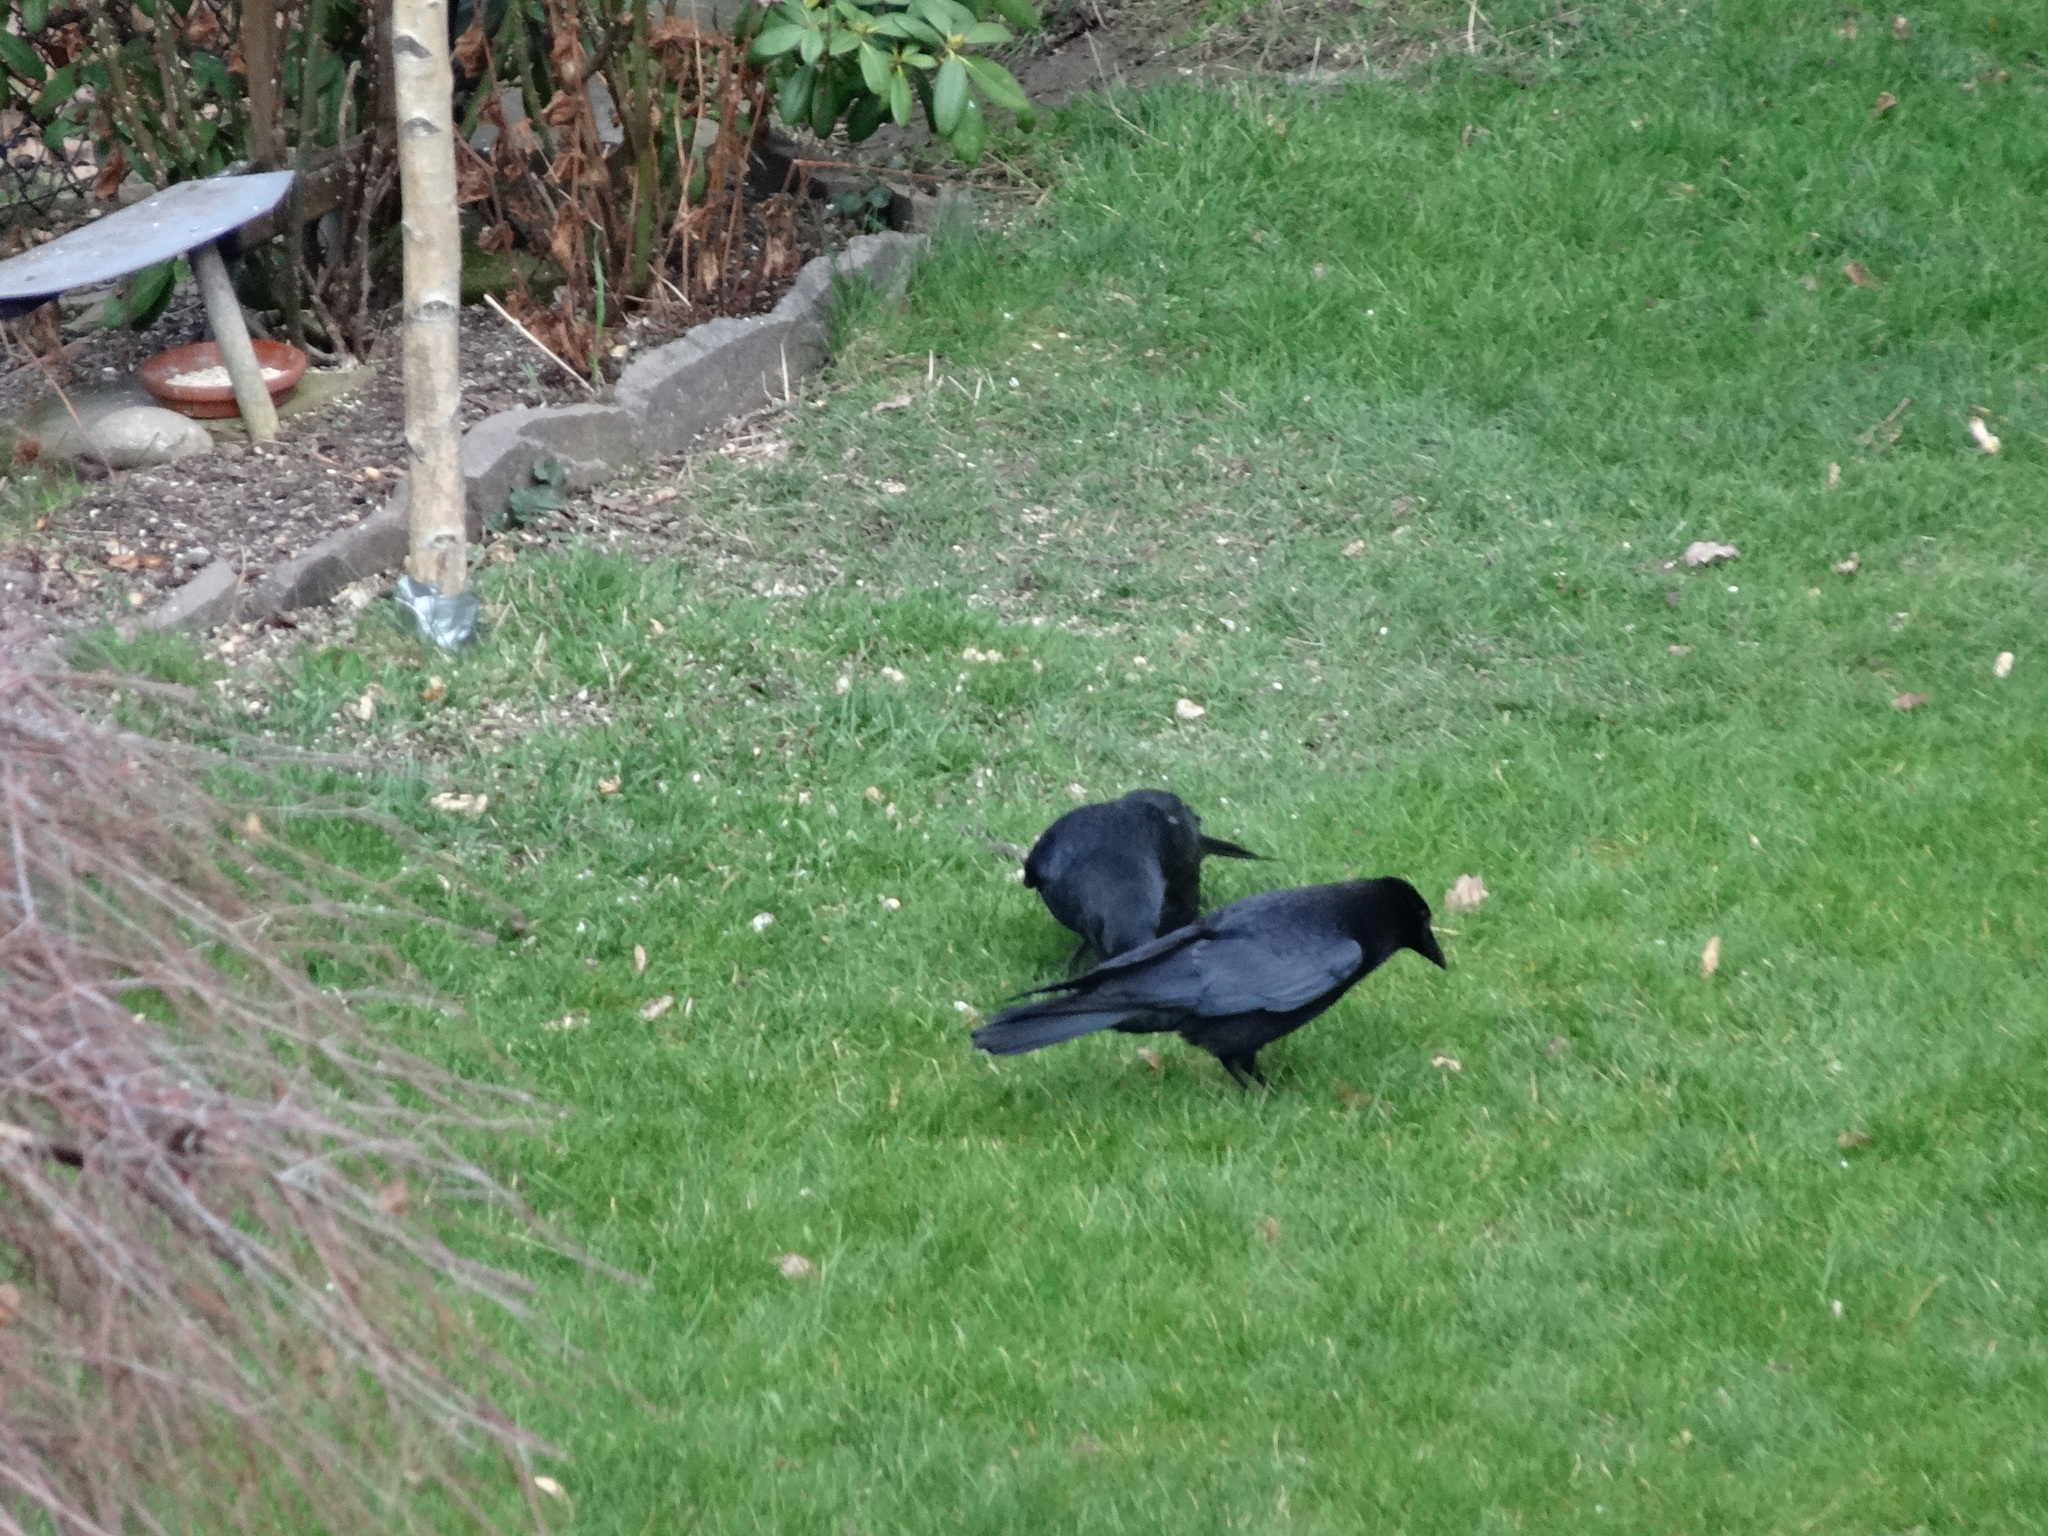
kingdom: Animalia
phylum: Chordata
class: Aves
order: Passeriformes
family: Corvidae
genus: Corvus
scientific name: Corvus corone
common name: Carrion crow
